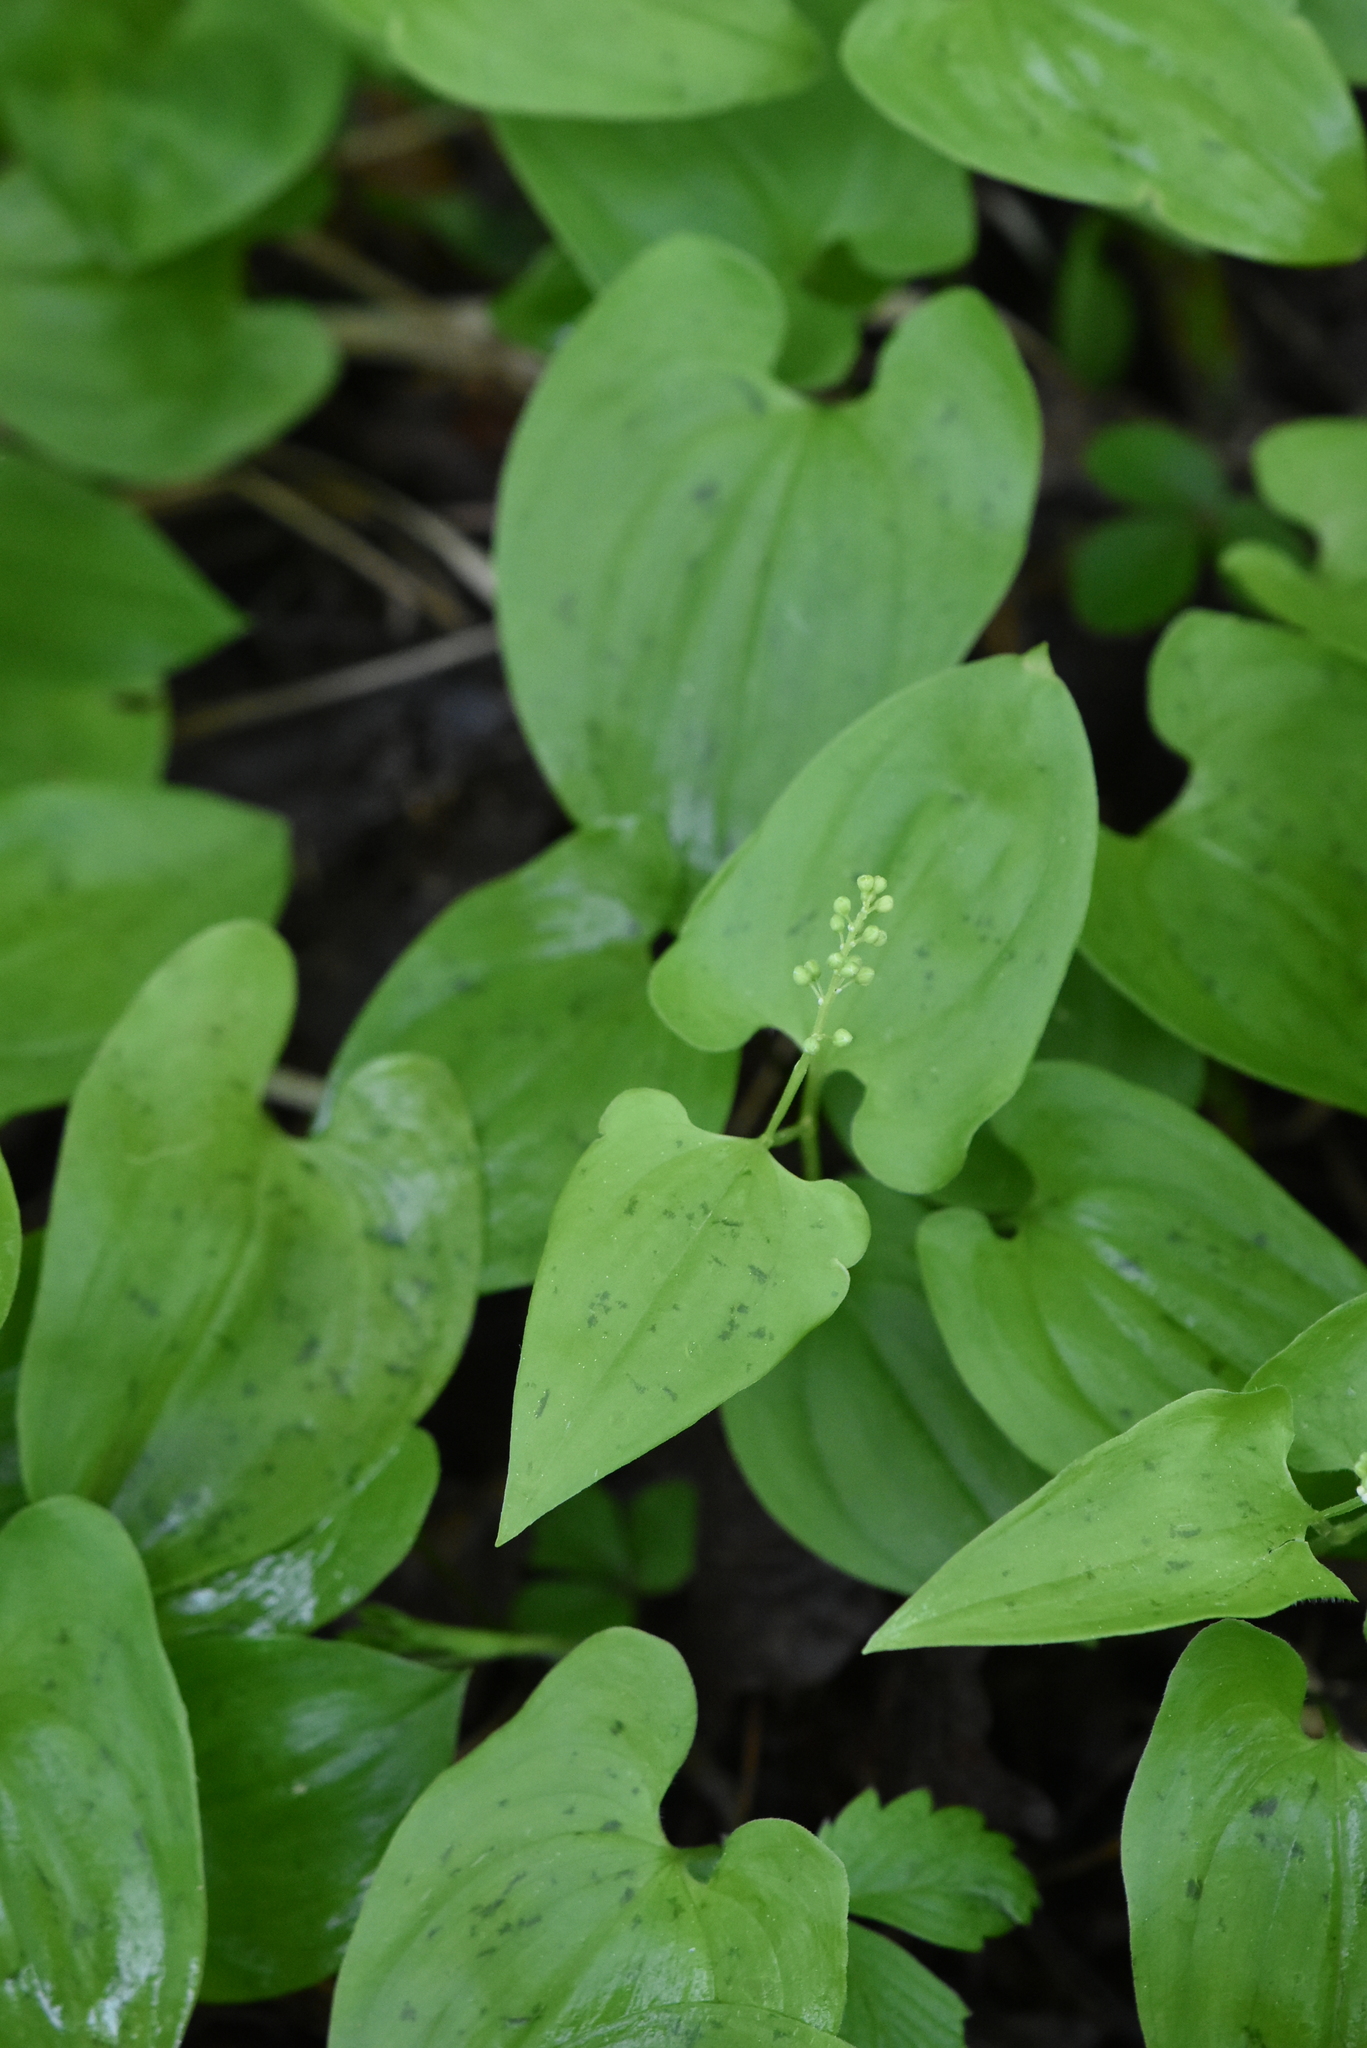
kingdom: Plantae
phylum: Tracheophyta
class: Liliopsida
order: Asparagales
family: Asparagaceae
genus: Maianthemum
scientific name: Maianthemum bifolium
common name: May lily
